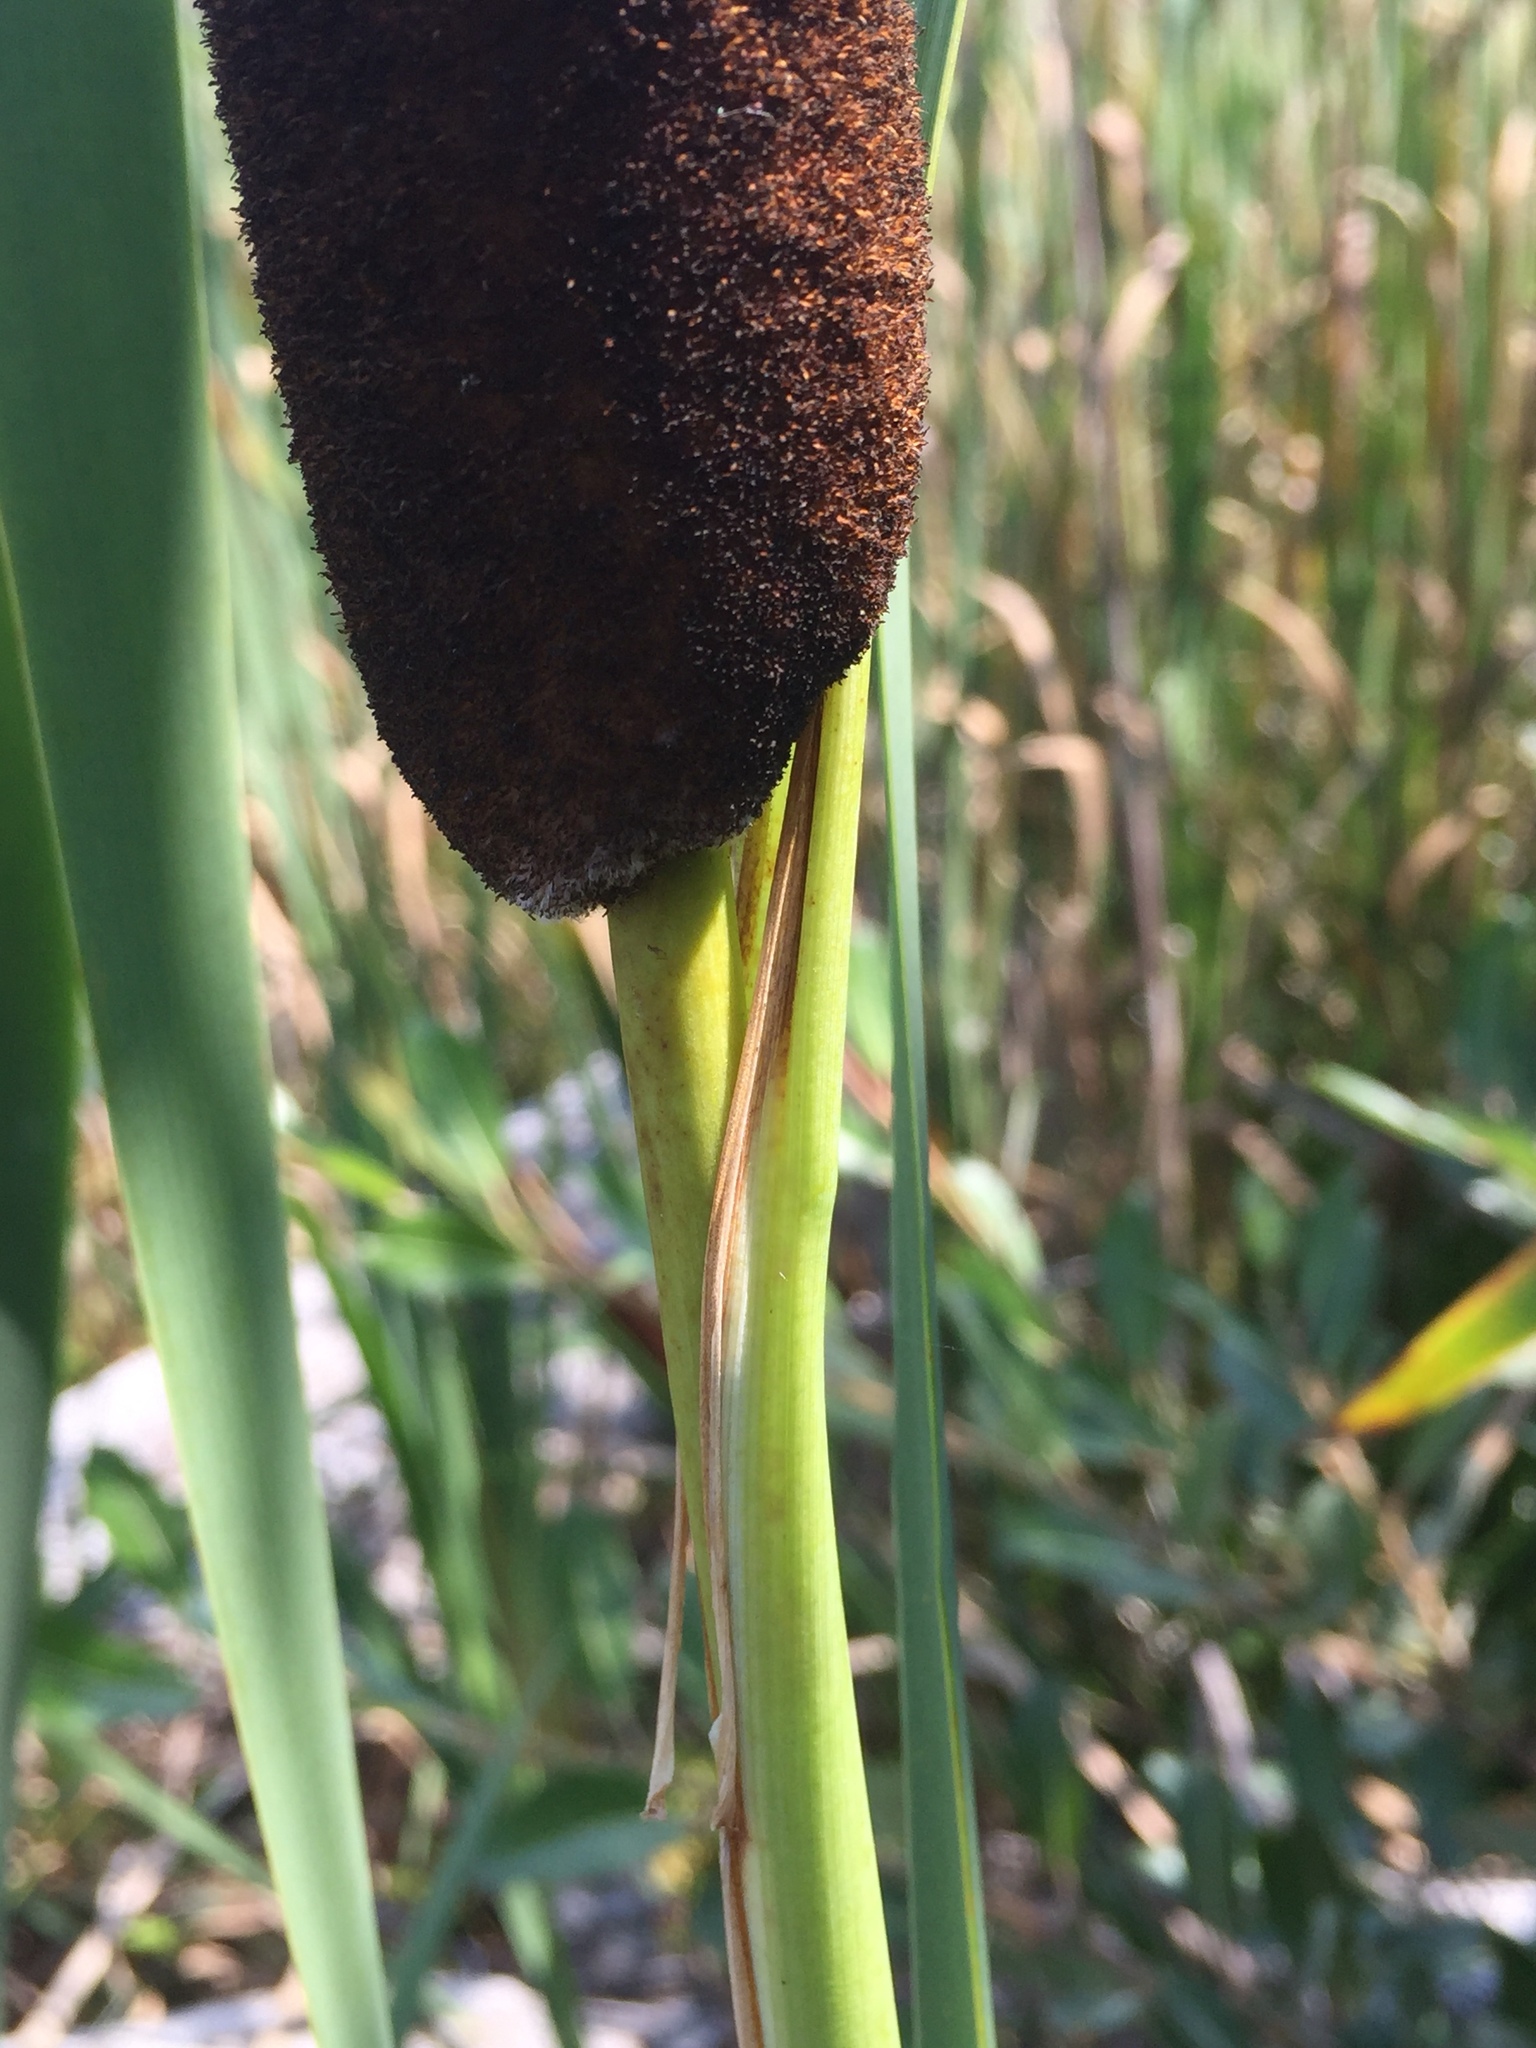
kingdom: Plantae
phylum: Tracheophyta
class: Liliopsida
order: Poales
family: Typhaceae
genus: Typha
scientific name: Typha latifolia
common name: Broadleaf cattail
